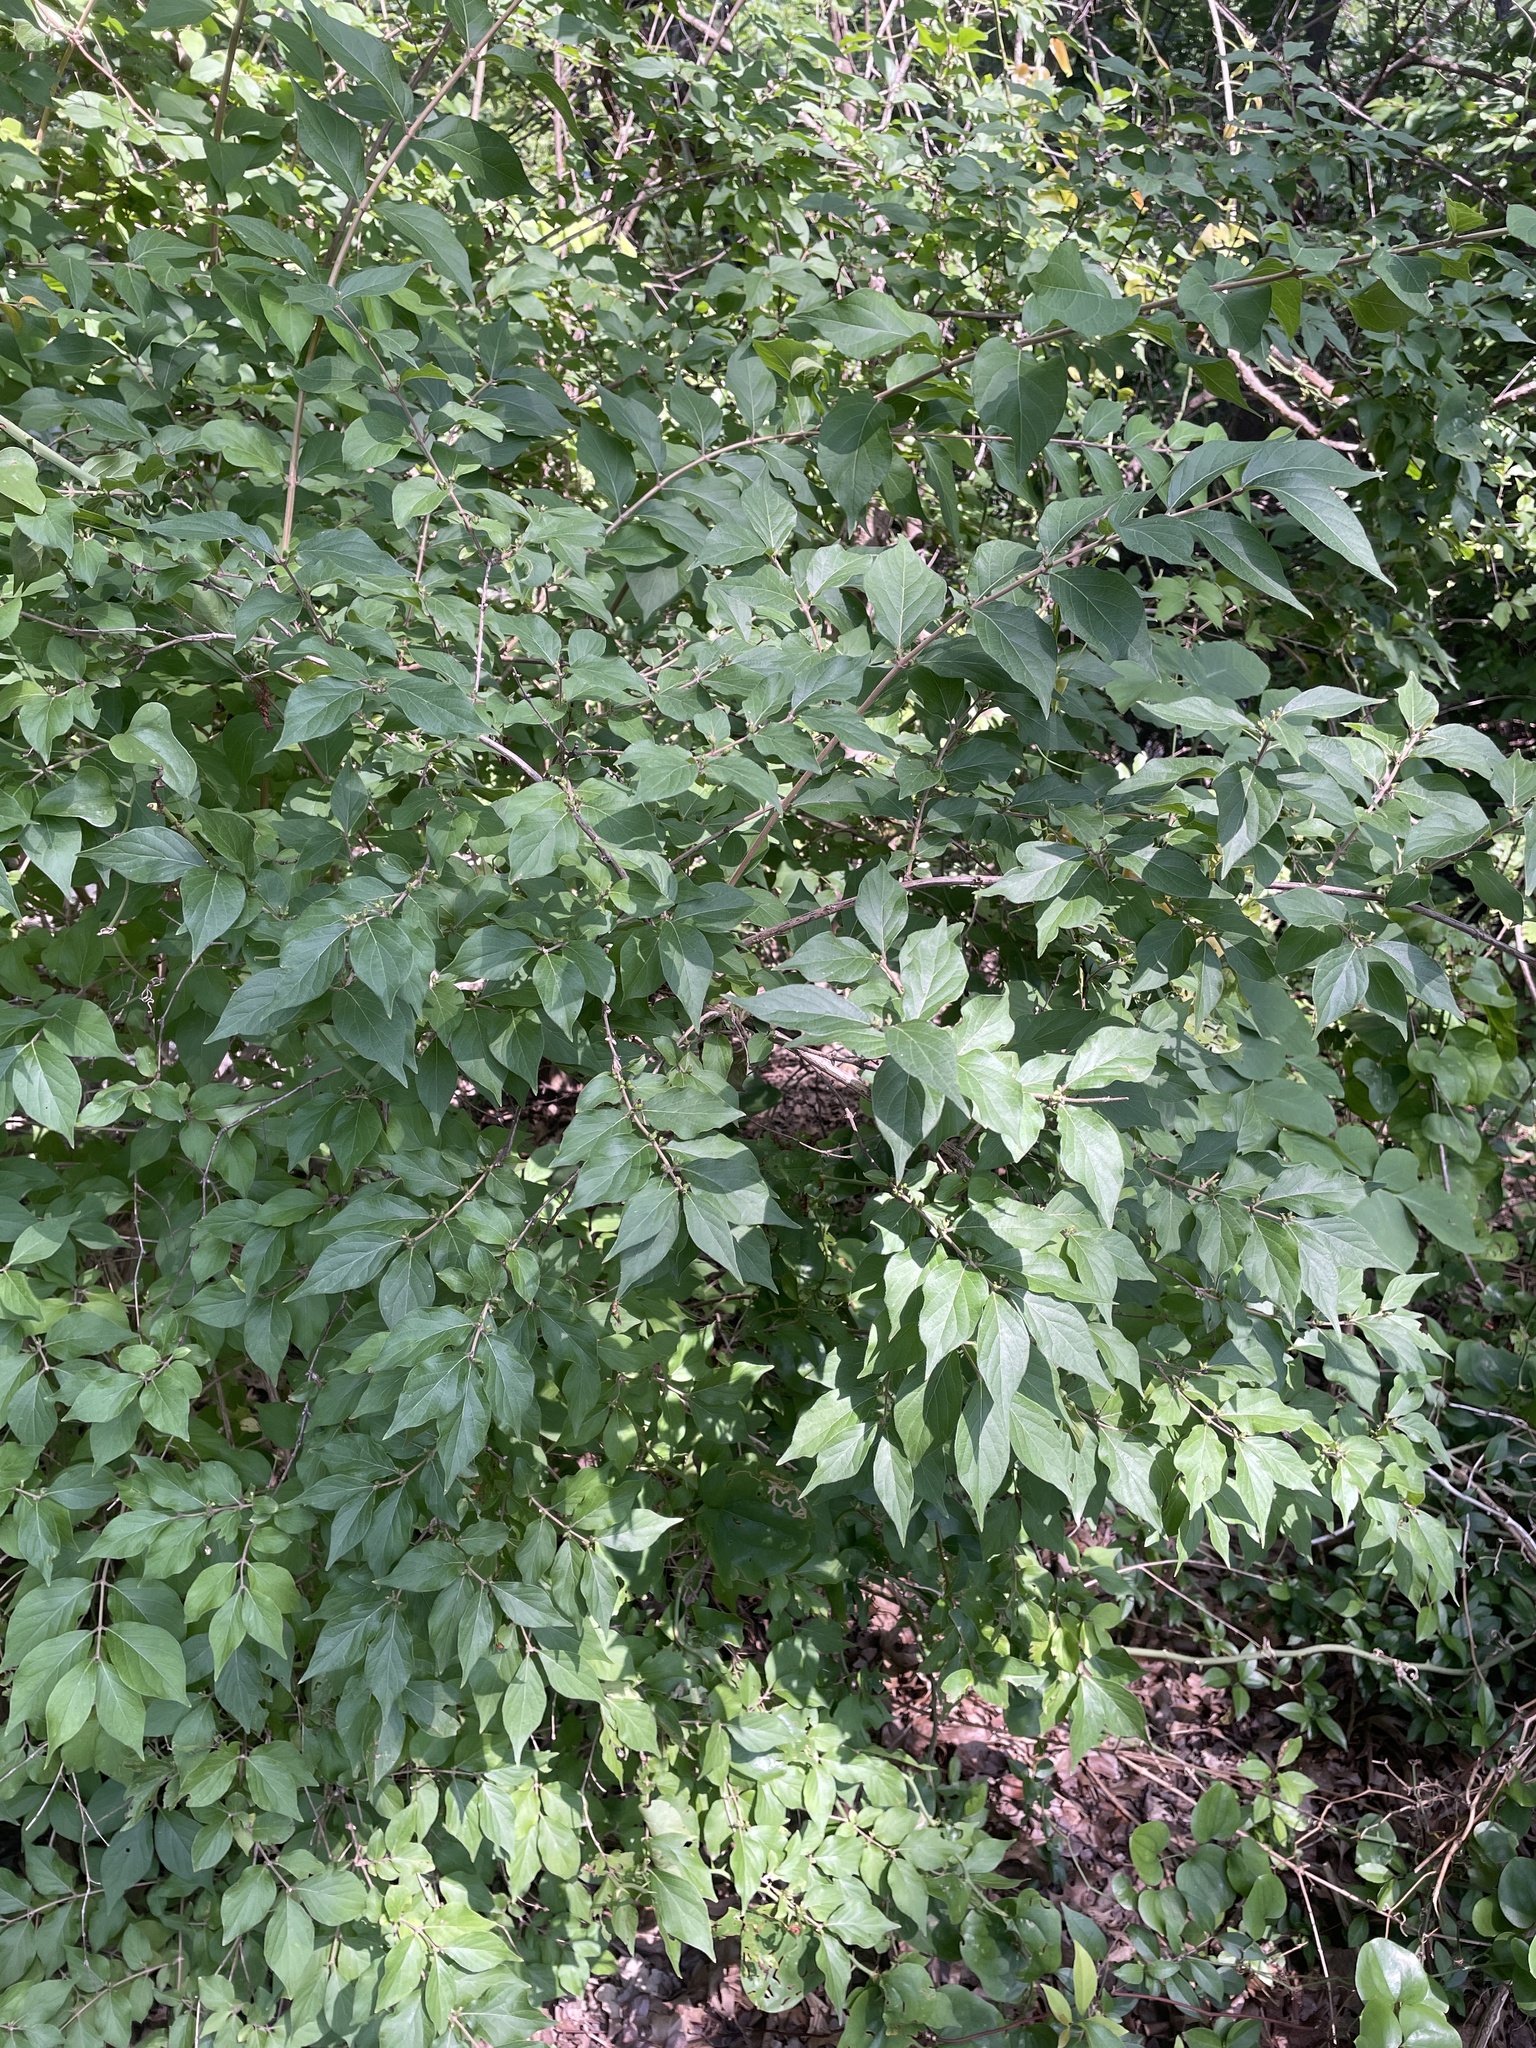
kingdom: Plantae
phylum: Tracheophyta
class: Magnoliopsida
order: Dipsacales
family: Caprifoliaceae
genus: Lonicera
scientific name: Lonicera maackii
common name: Amur honeysuckle
